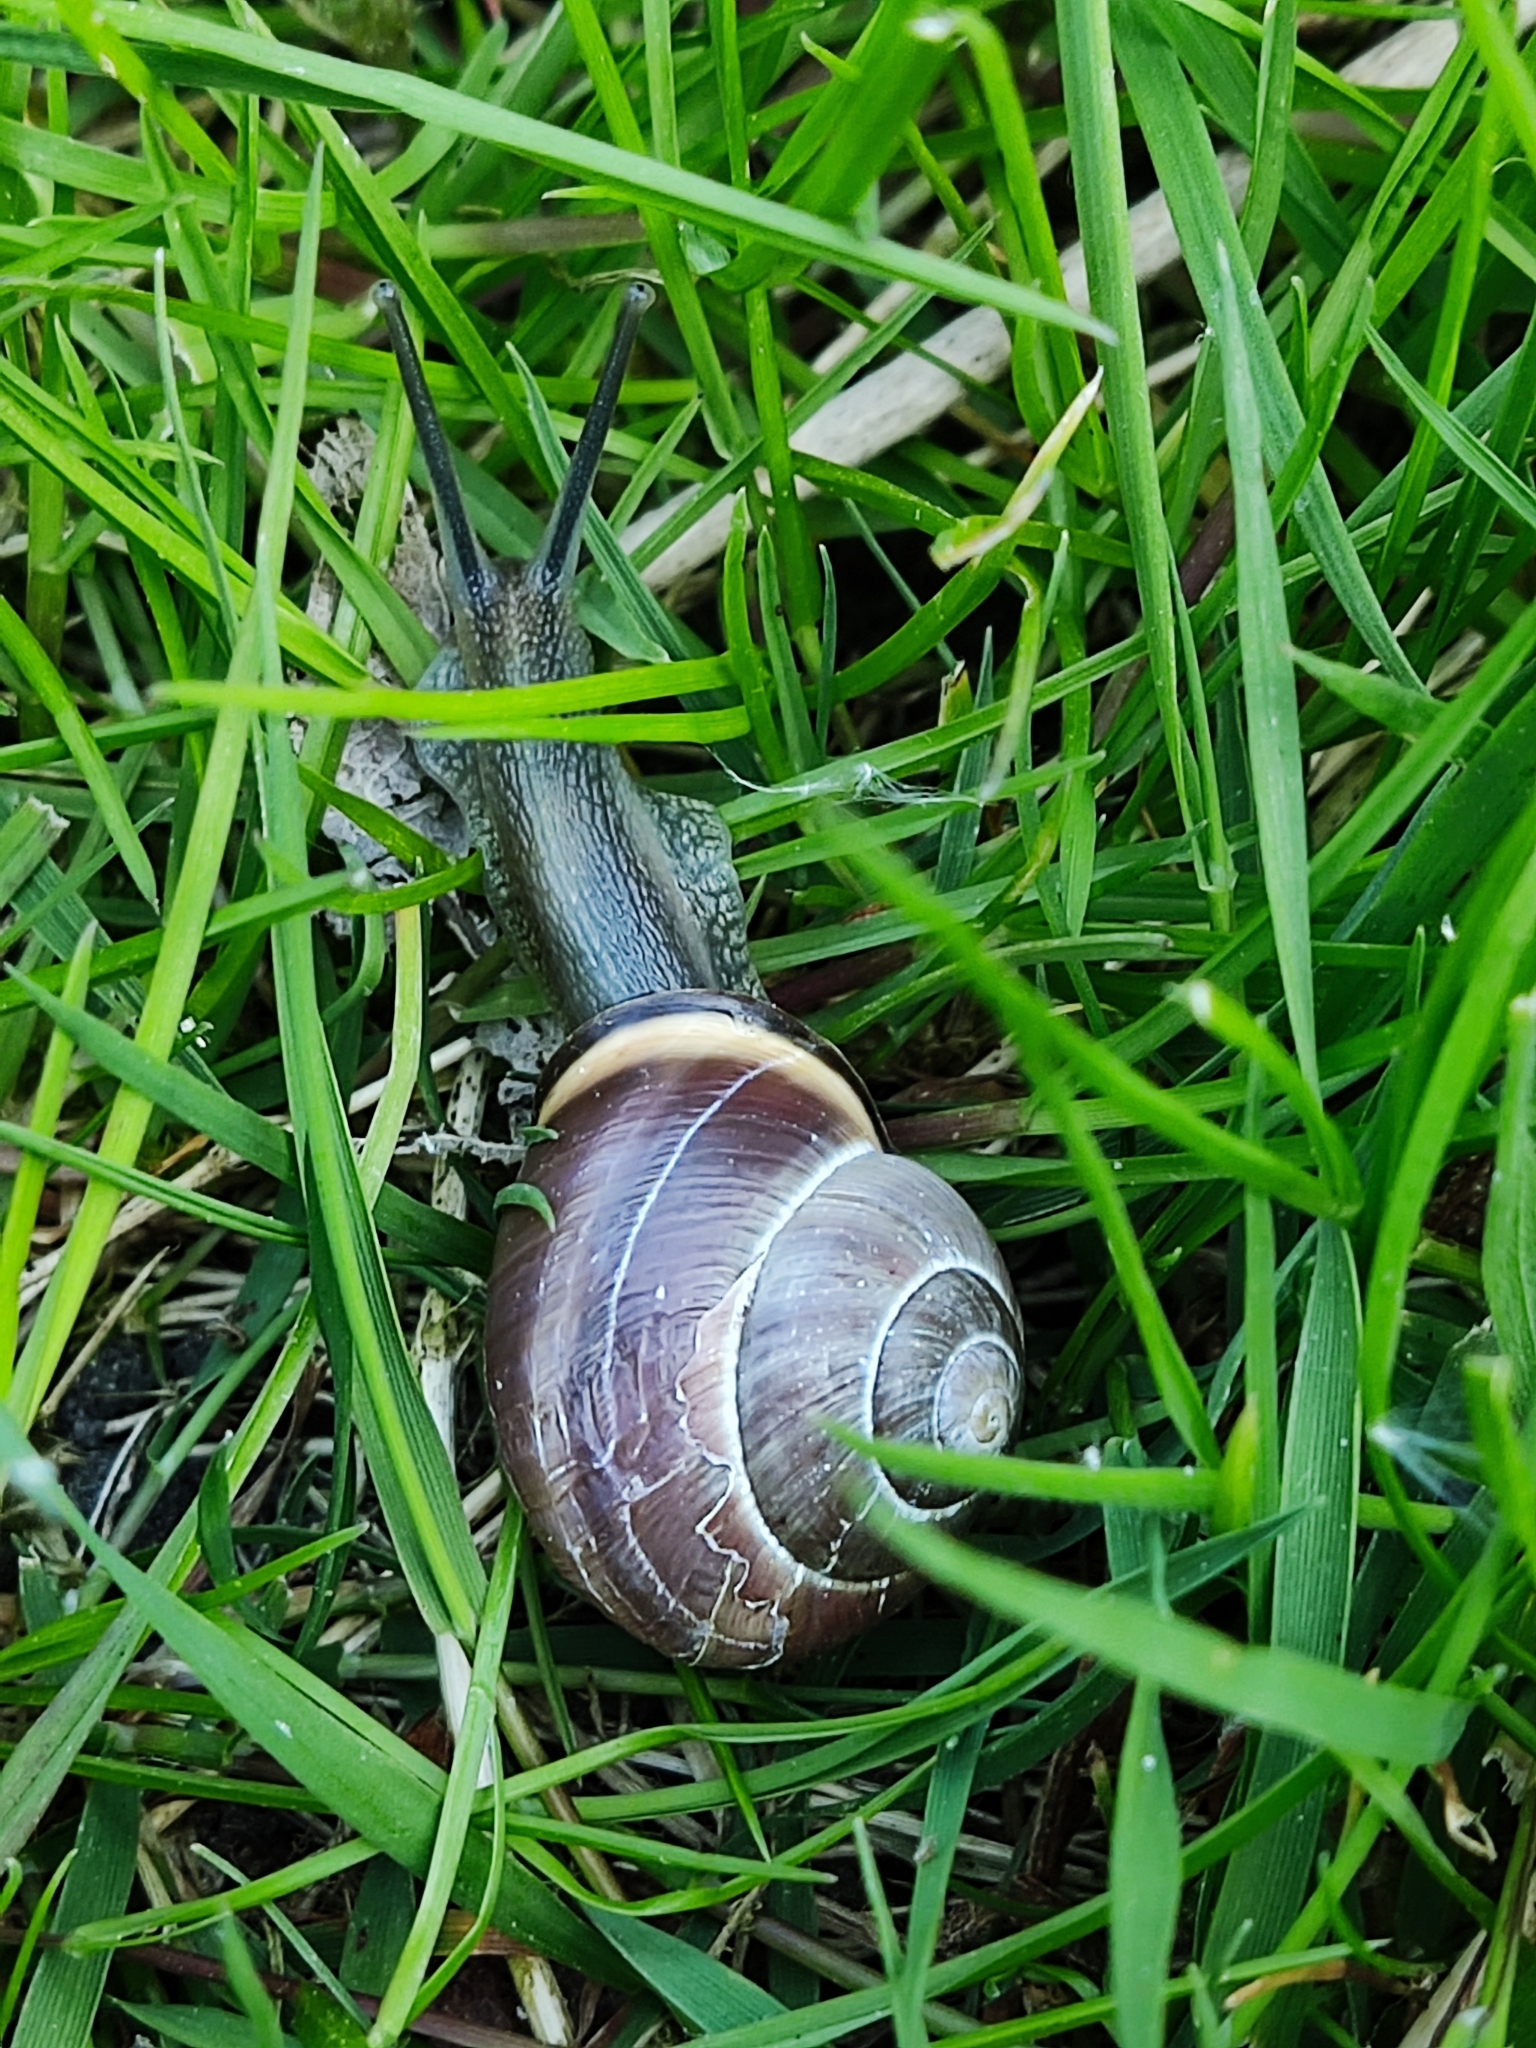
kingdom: Animalia
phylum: Mollusca
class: Gastropoda
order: Stylommatophora
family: Helicidae
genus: Cepaea
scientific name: Cepaea nemoralis
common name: Grovesnail
